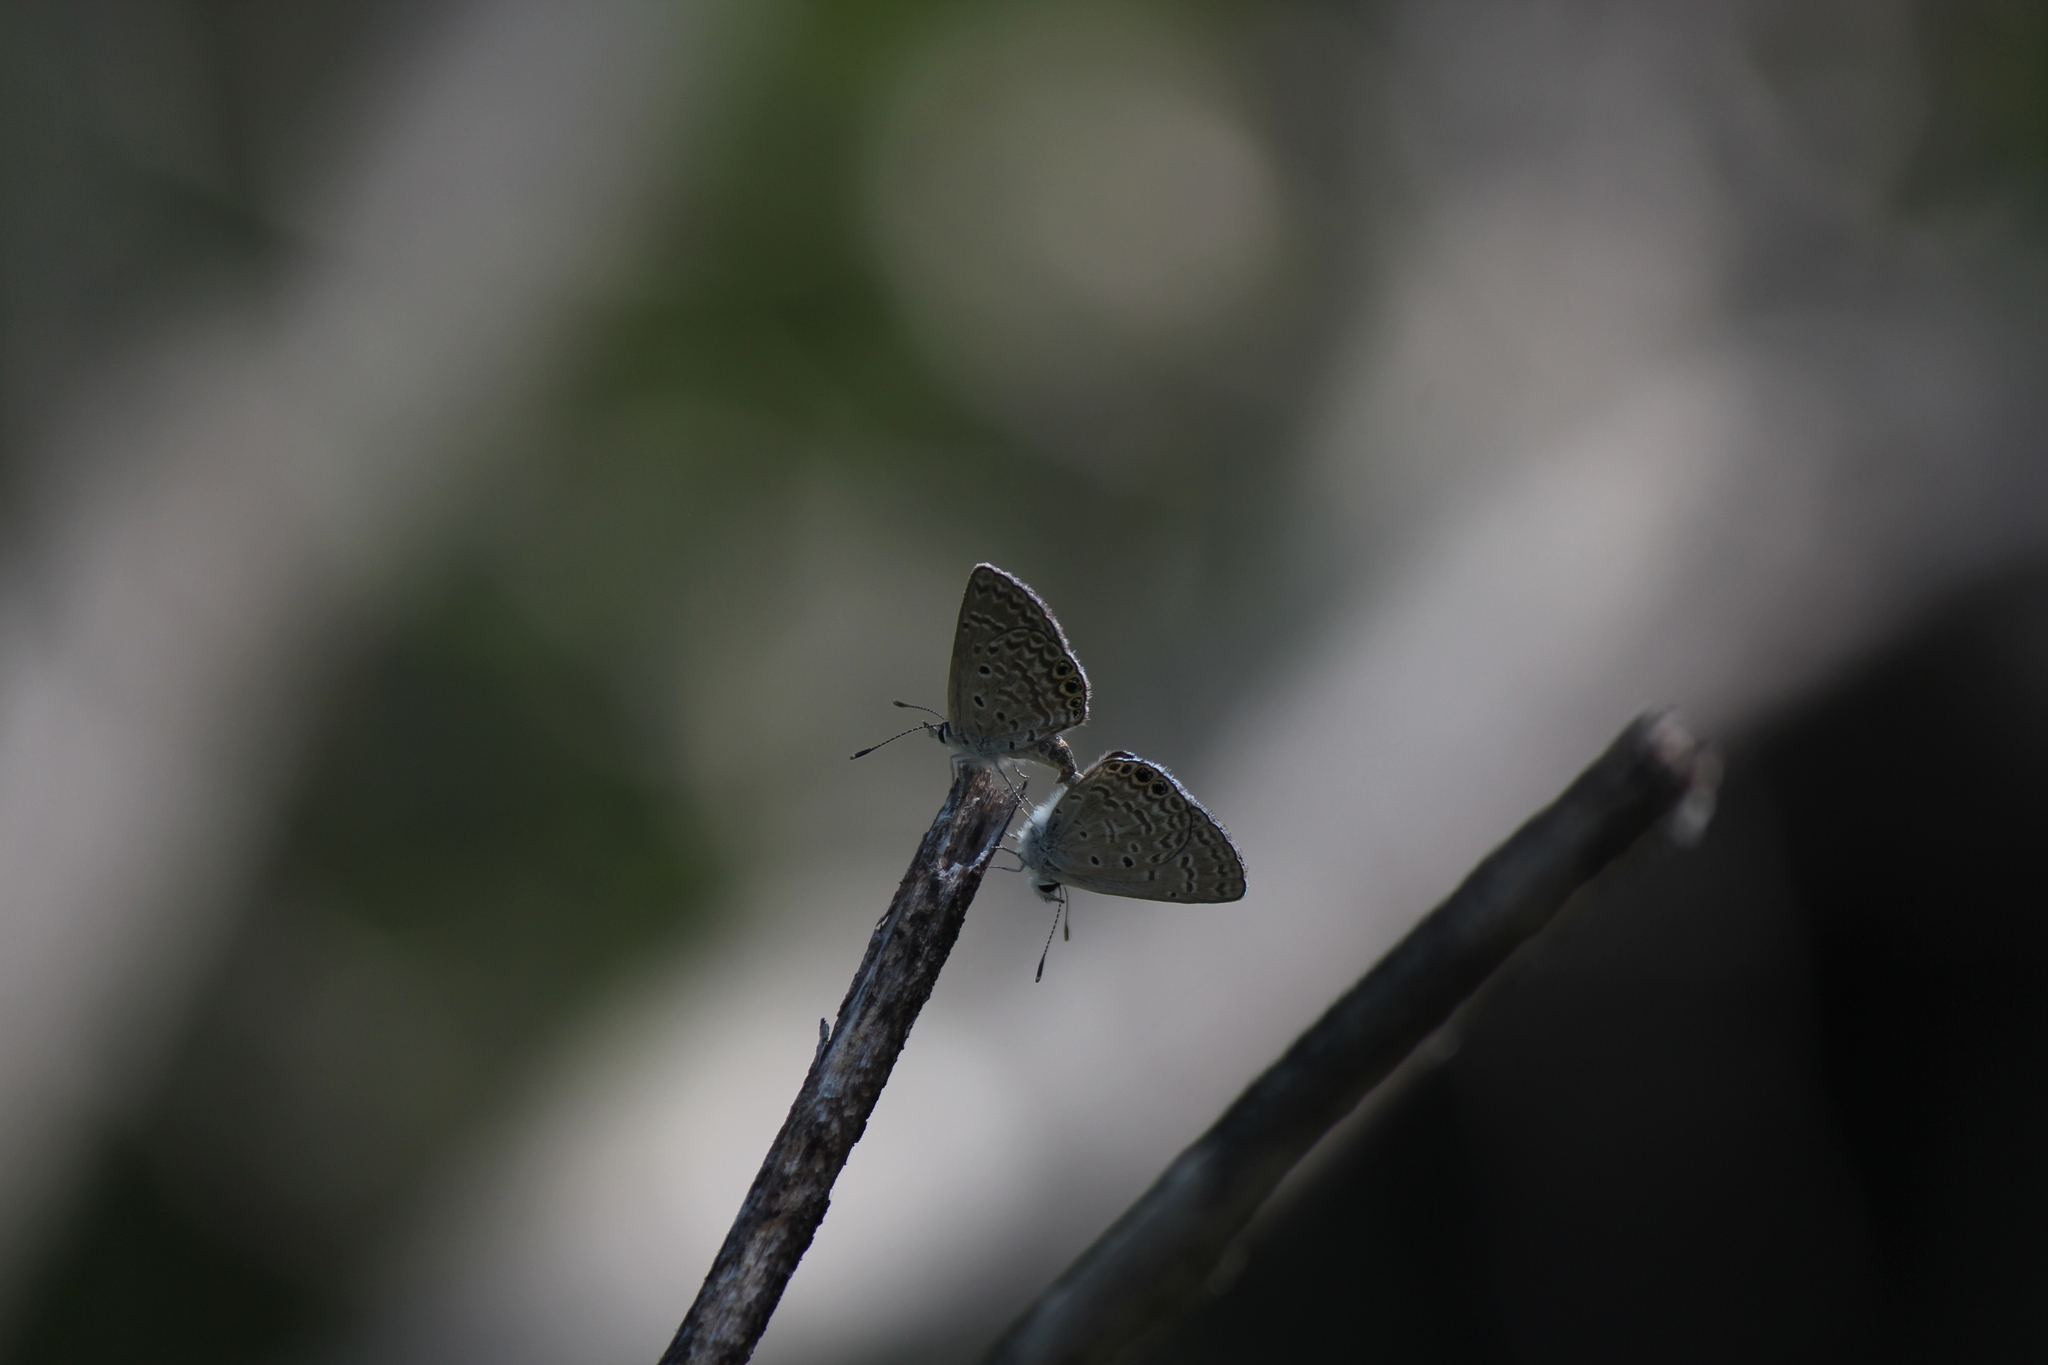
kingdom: Animalia
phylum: Arthropoda
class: Insecta
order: Lepidoptera
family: Lycaenidae
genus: Hemiargus
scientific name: Hemiargus ramon
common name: Ramon blue
